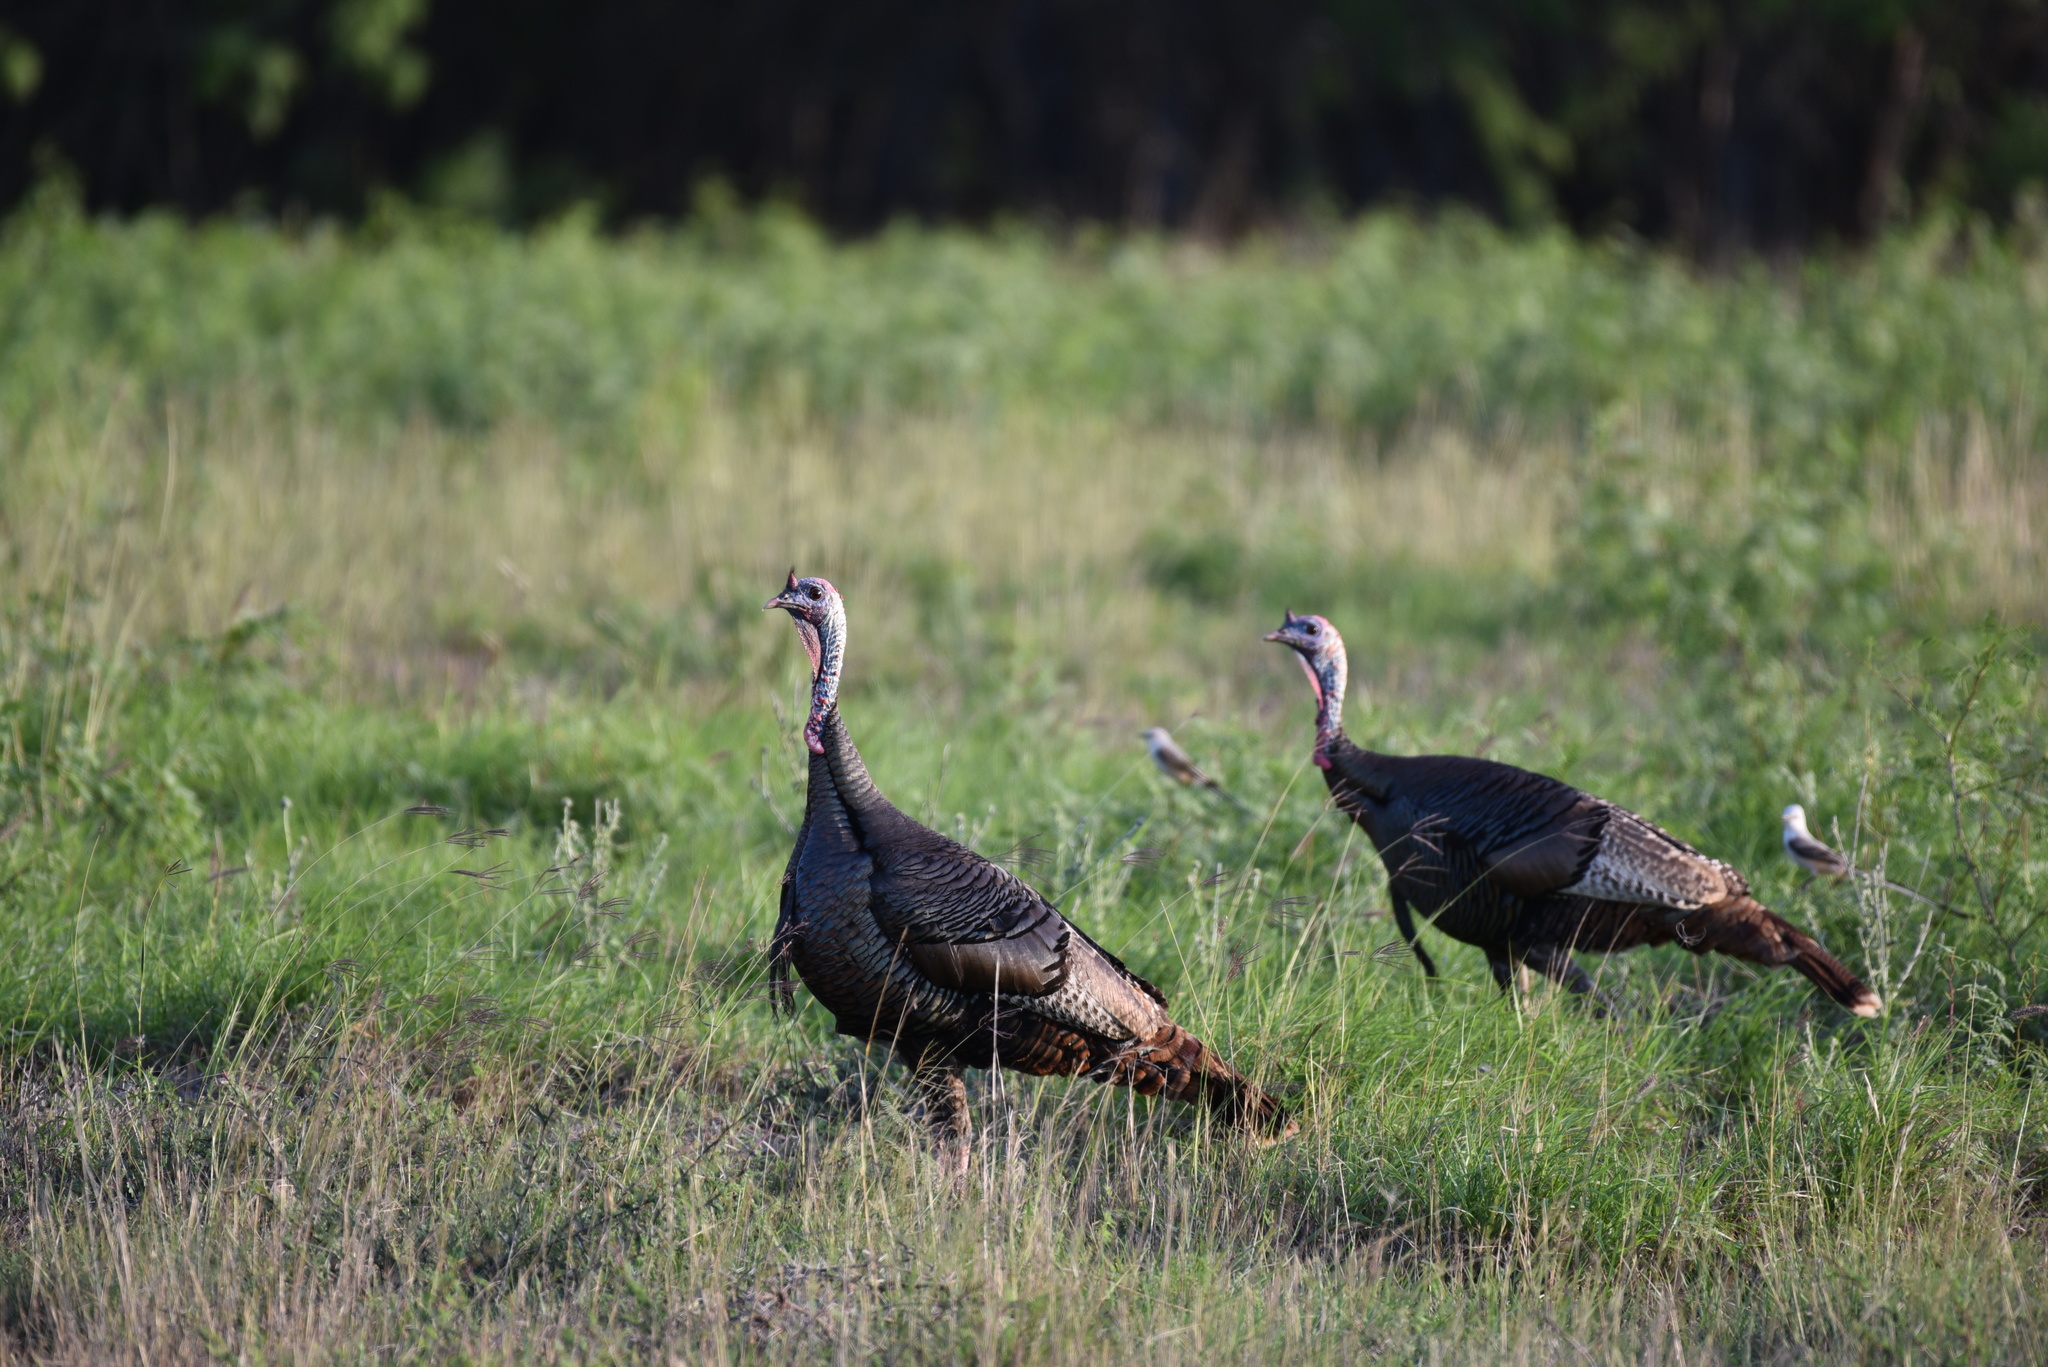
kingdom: Animalia
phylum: Chordata
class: Aves
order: Galliformes
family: Phasianidae
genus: Meleagris
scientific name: Meleagris gallopavo
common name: Wild turkey
